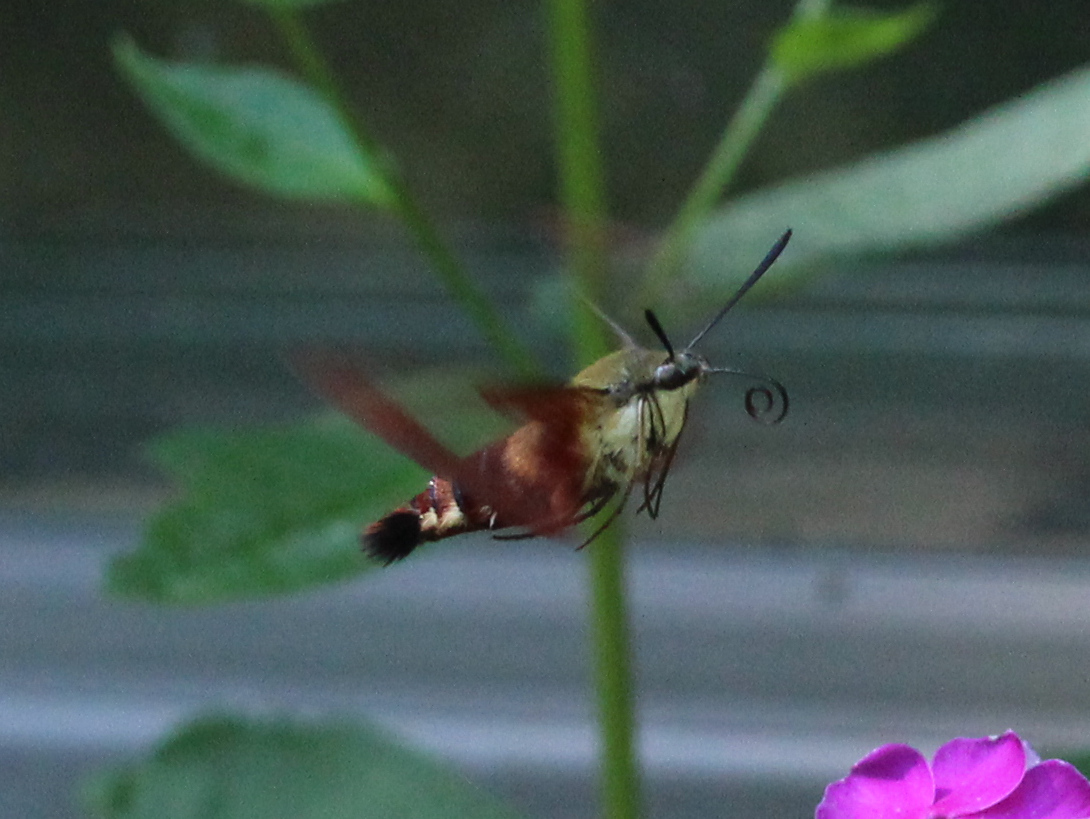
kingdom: Animalia
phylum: Arthropoda
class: Insecta
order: Lepidoptera
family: Sphingidae
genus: Hemaris
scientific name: Hemaris thysbe
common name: Common clear-wing
